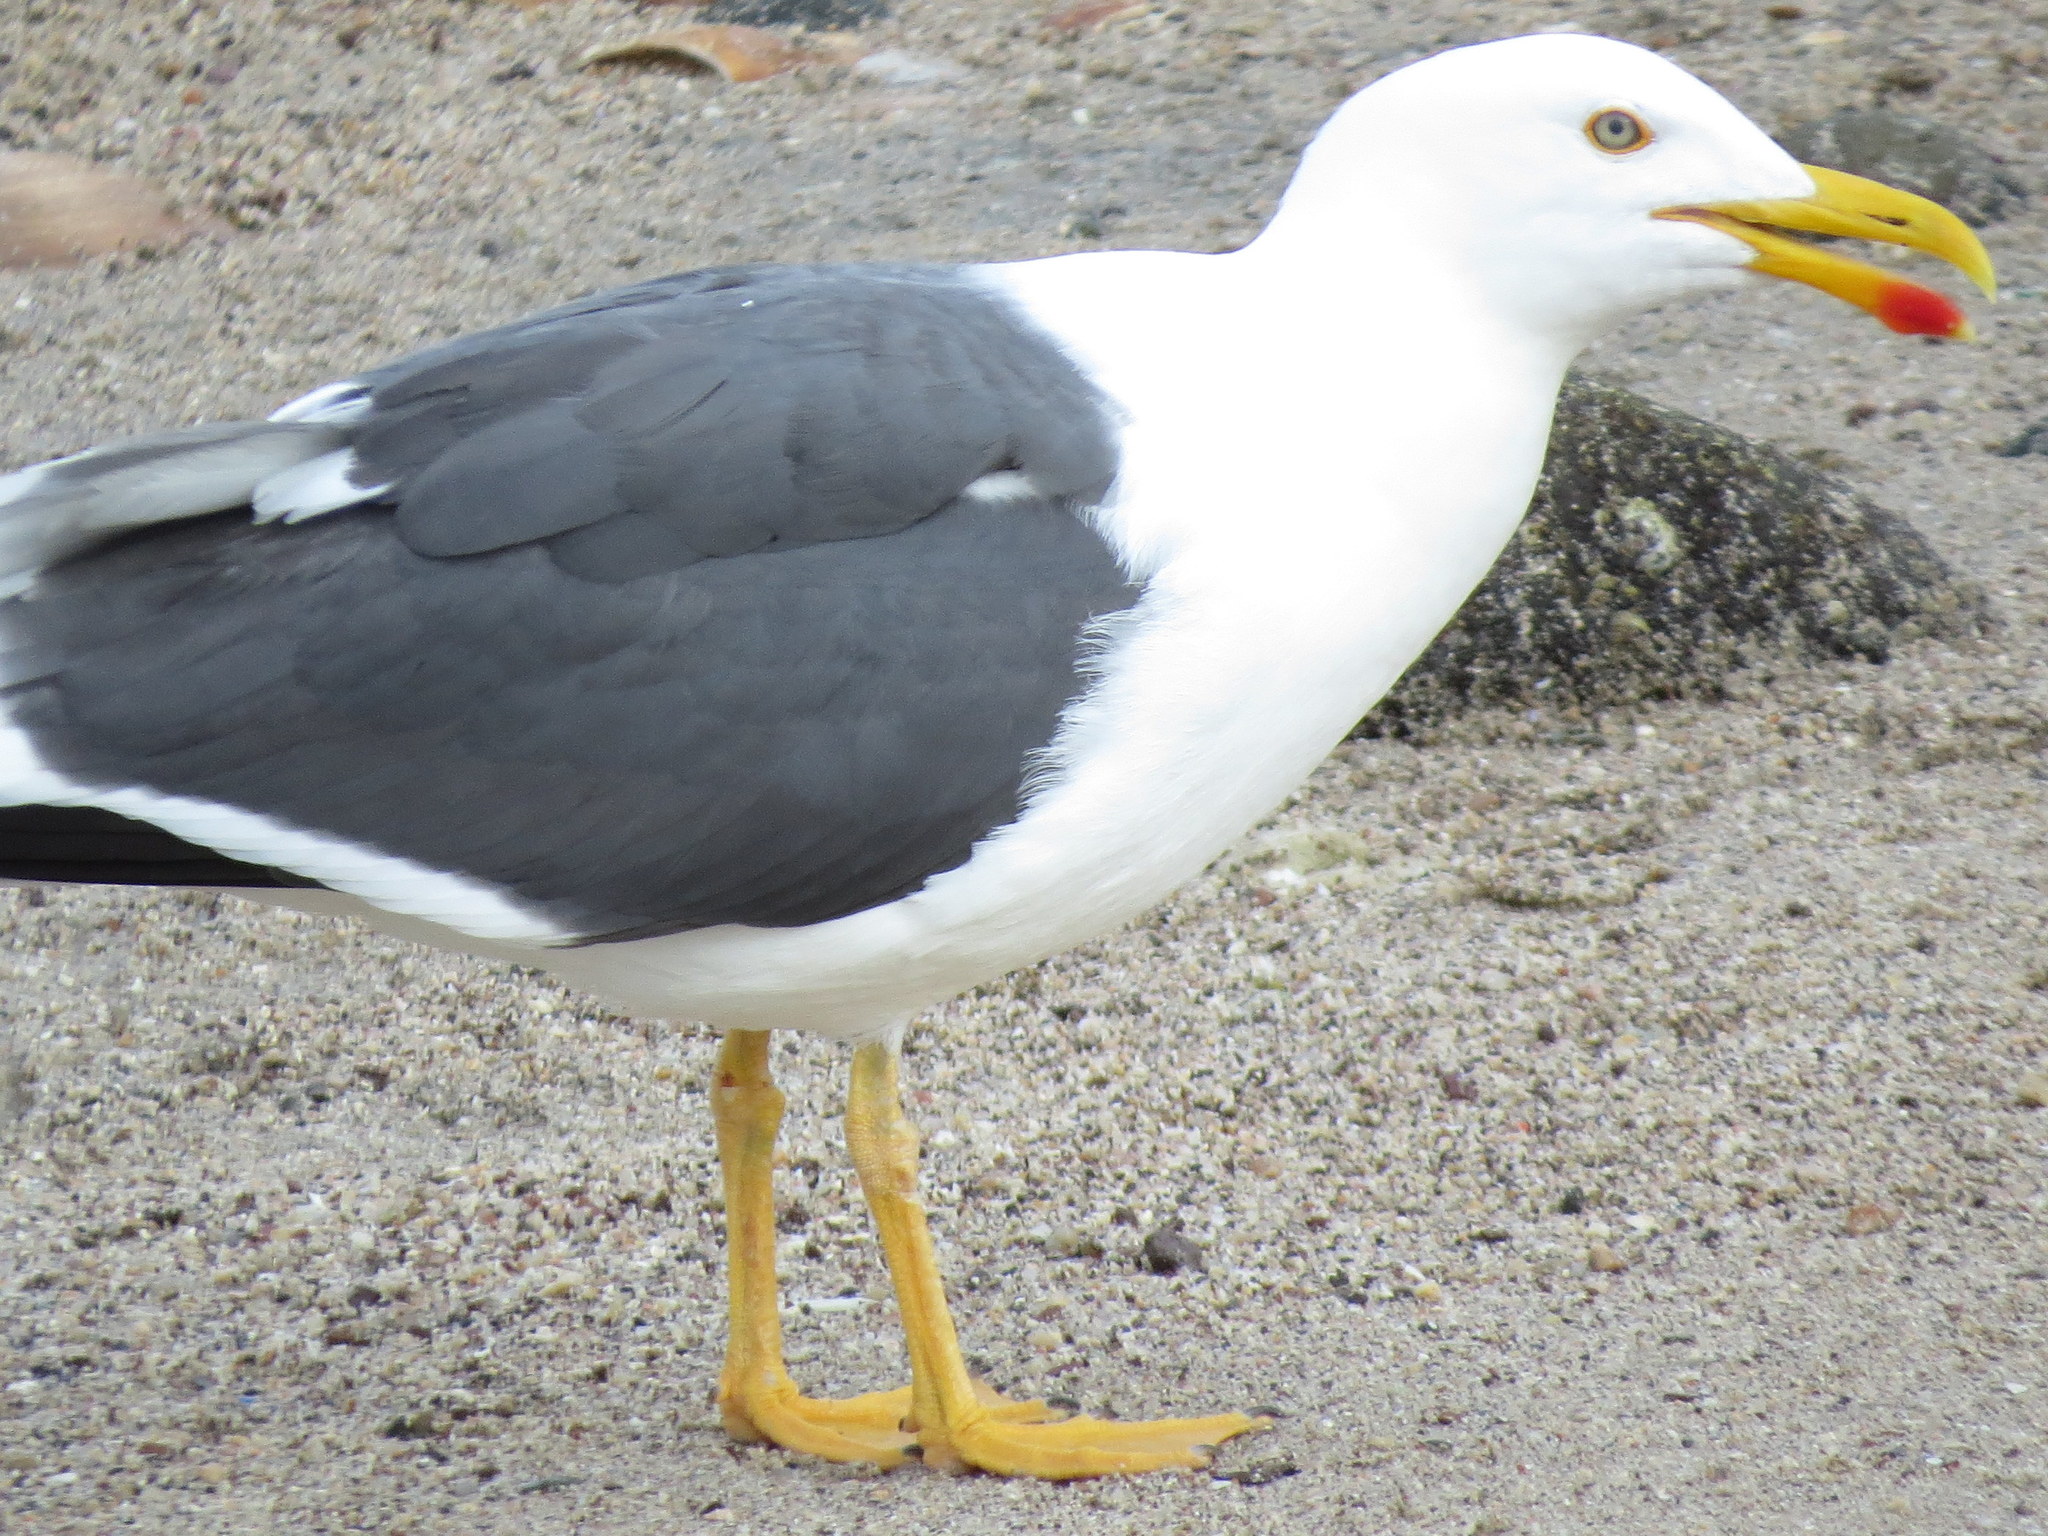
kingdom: Animalia
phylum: Chordata
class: Aves
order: Charadriiformes
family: Laridae
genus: Larus
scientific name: Larus livens
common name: Yellow-footed gull
